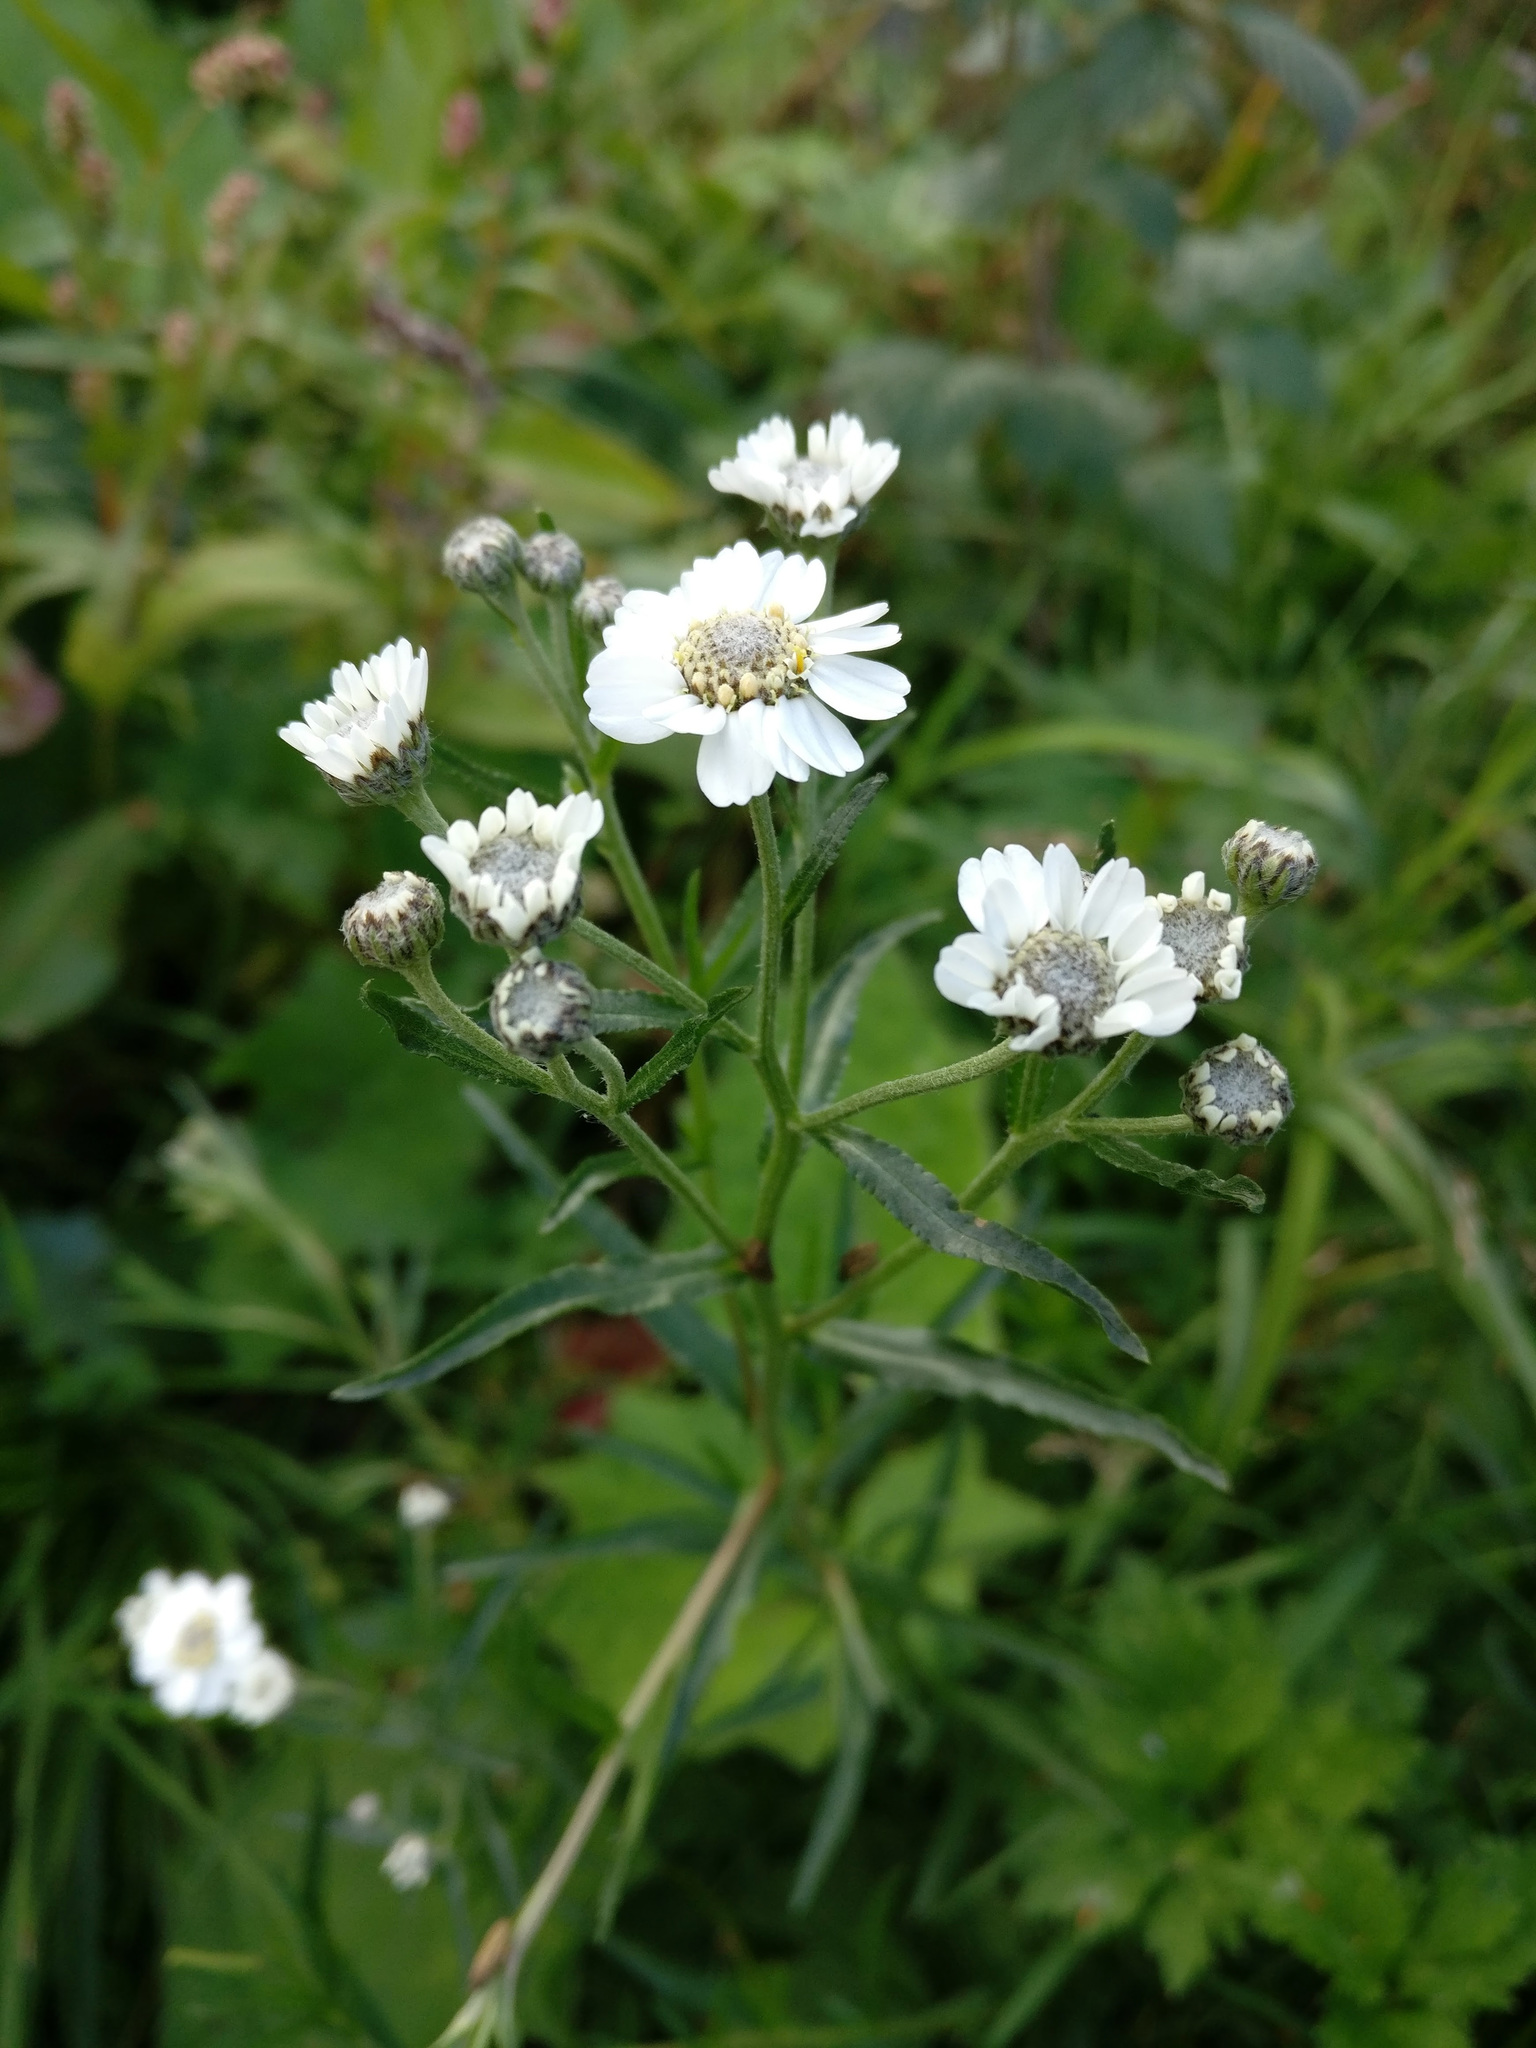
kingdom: Plantae
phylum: Tracheophyta
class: Magnoliopsida
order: Asterales
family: Asteraceae
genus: Achillea
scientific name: Achillea ptarmica
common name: Sneezeweed
